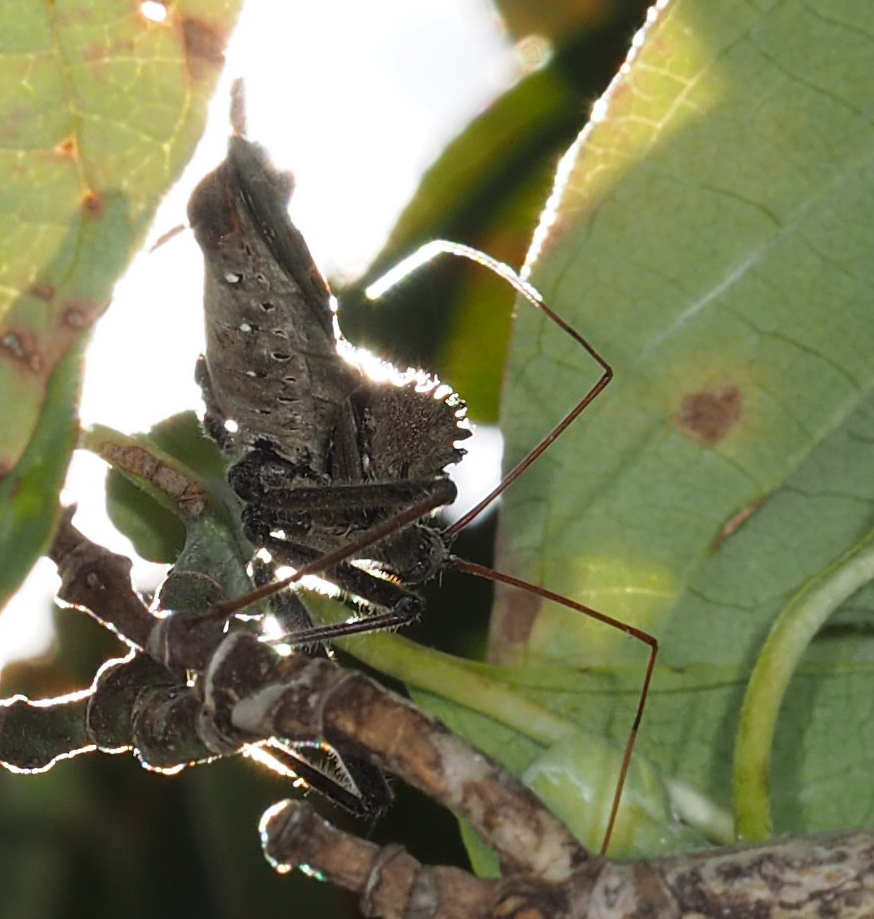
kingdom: Animalia
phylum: Arthropoda
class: Insecta
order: Hemiptera
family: Reduviidae
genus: Arilus
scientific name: Arilus cristatus
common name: North american wheel bug
